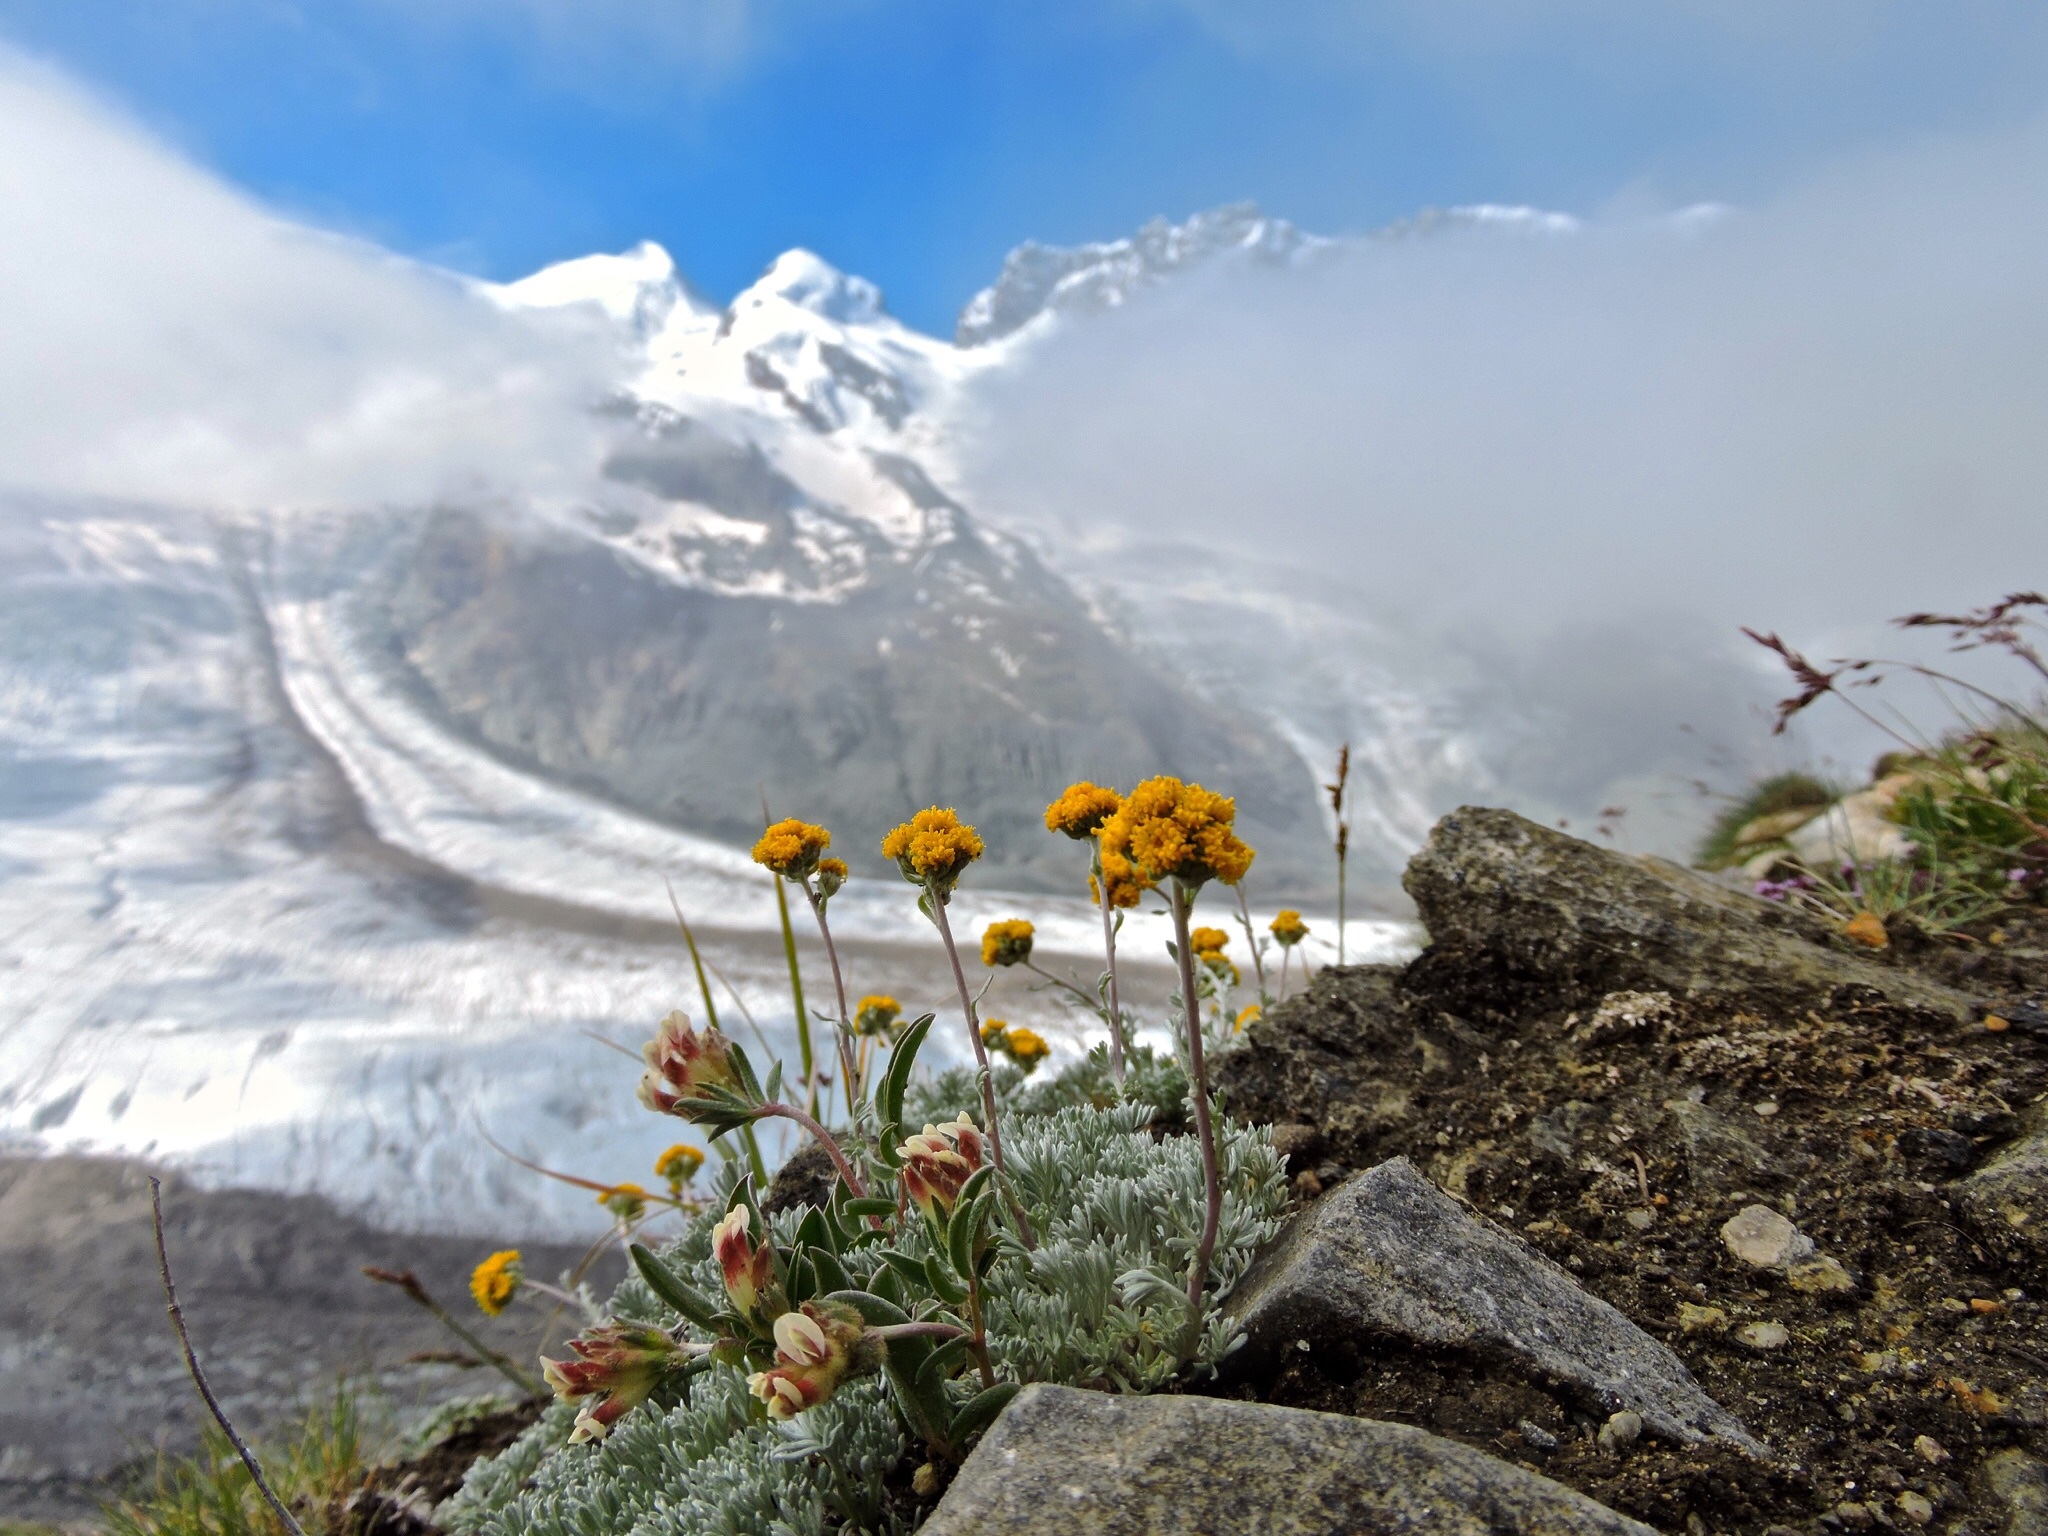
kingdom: Plantae
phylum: Tracheophyta
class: Magnoliopsida
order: Asterales
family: Asteraceae
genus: Artemisia
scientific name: Artemisia glacialis
